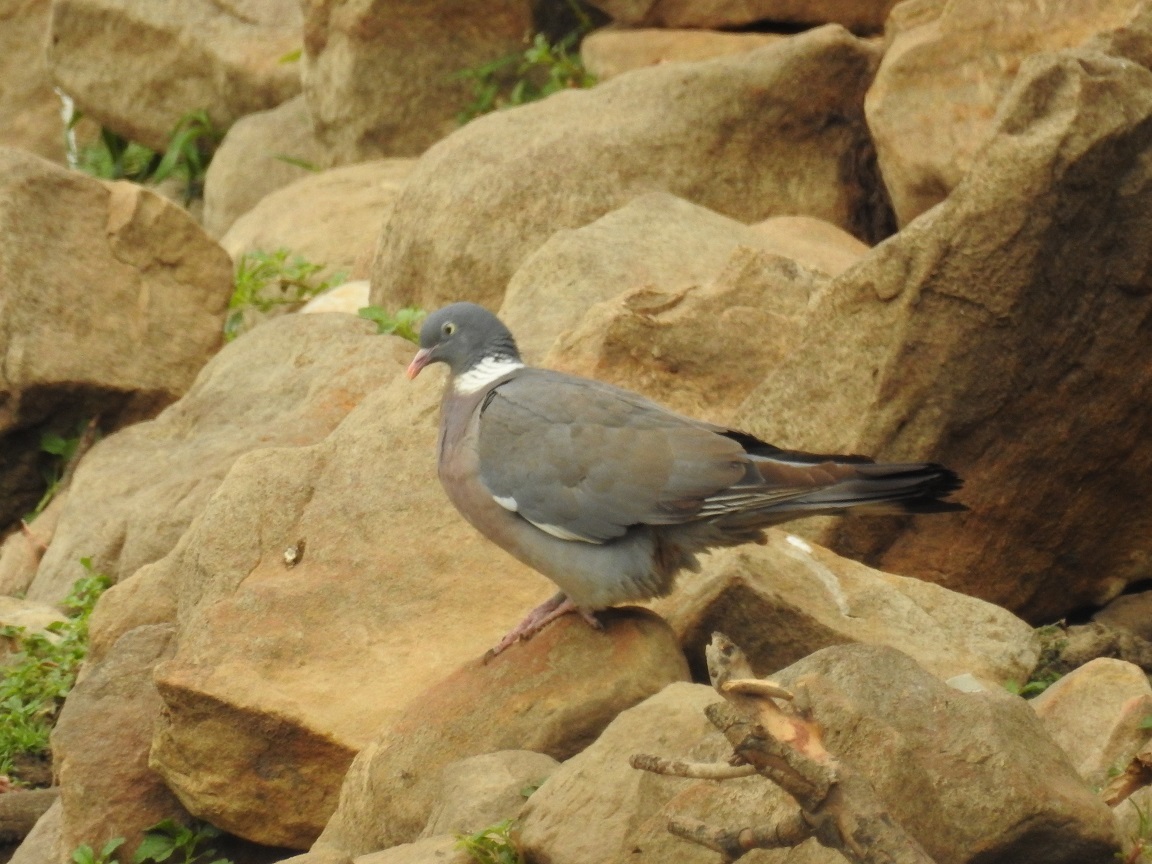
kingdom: Animalia
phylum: Chordata
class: Aves
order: Columbiformes
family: Columbidae
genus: Columba
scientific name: Columba palumbus
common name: Common wood pigeon
